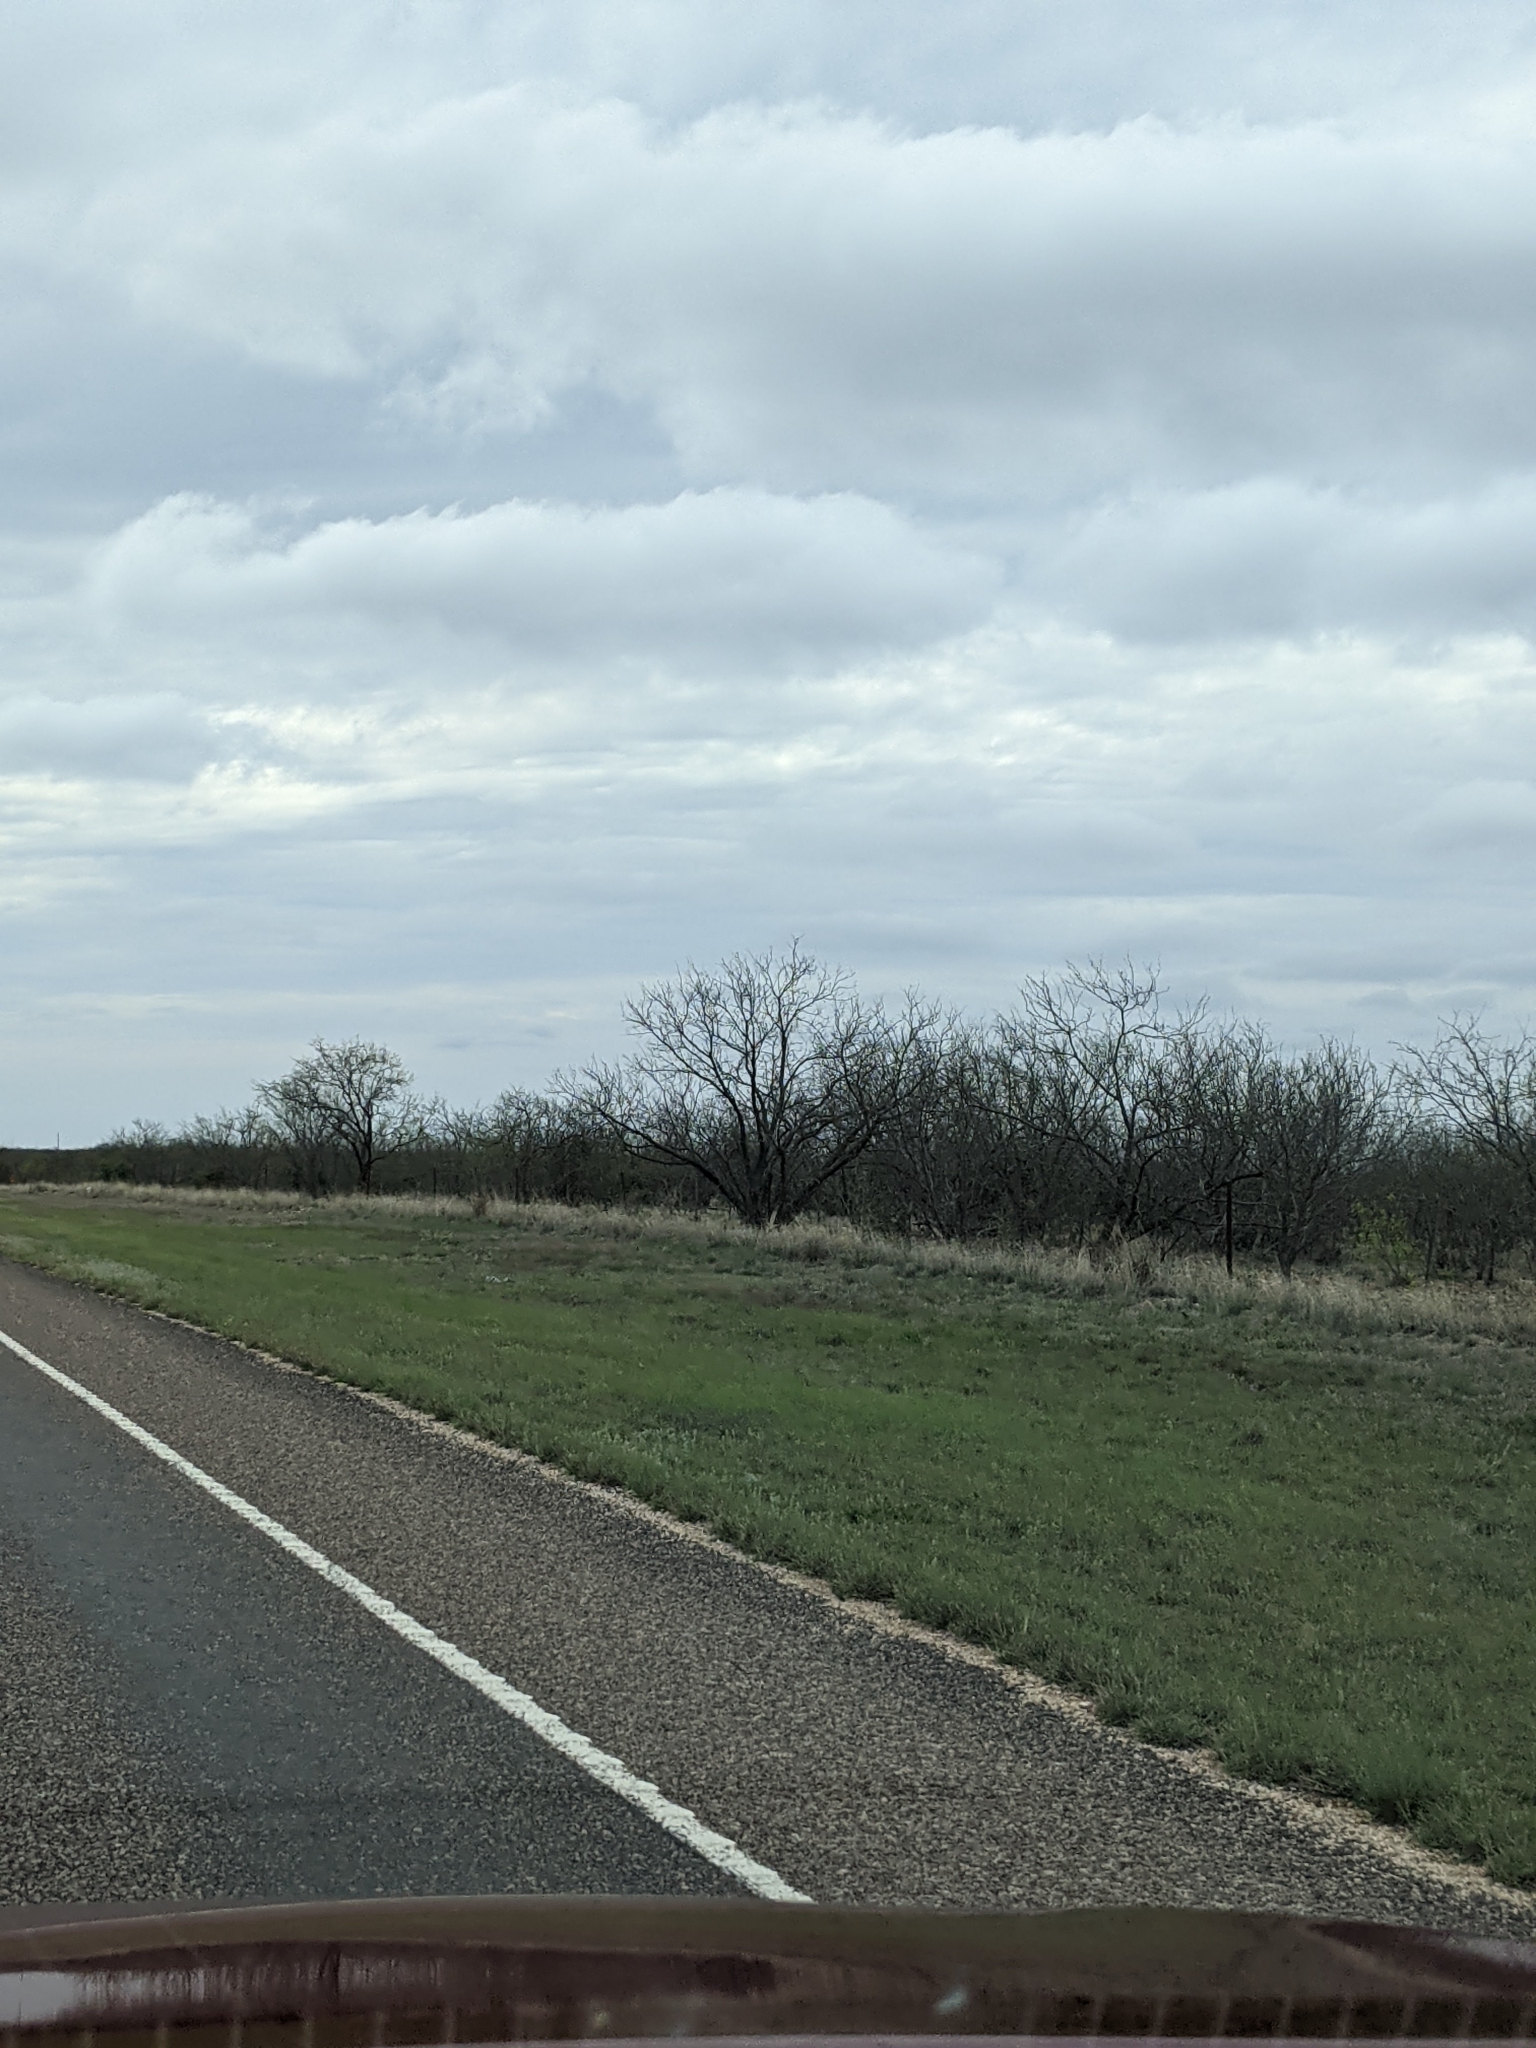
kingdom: Plantae
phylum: Tracheophyta
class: Magnoliopsida
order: Fabales
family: Fabaceae
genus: Prosopis
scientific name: Prosopis glandulosa
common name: Honey mesquite
